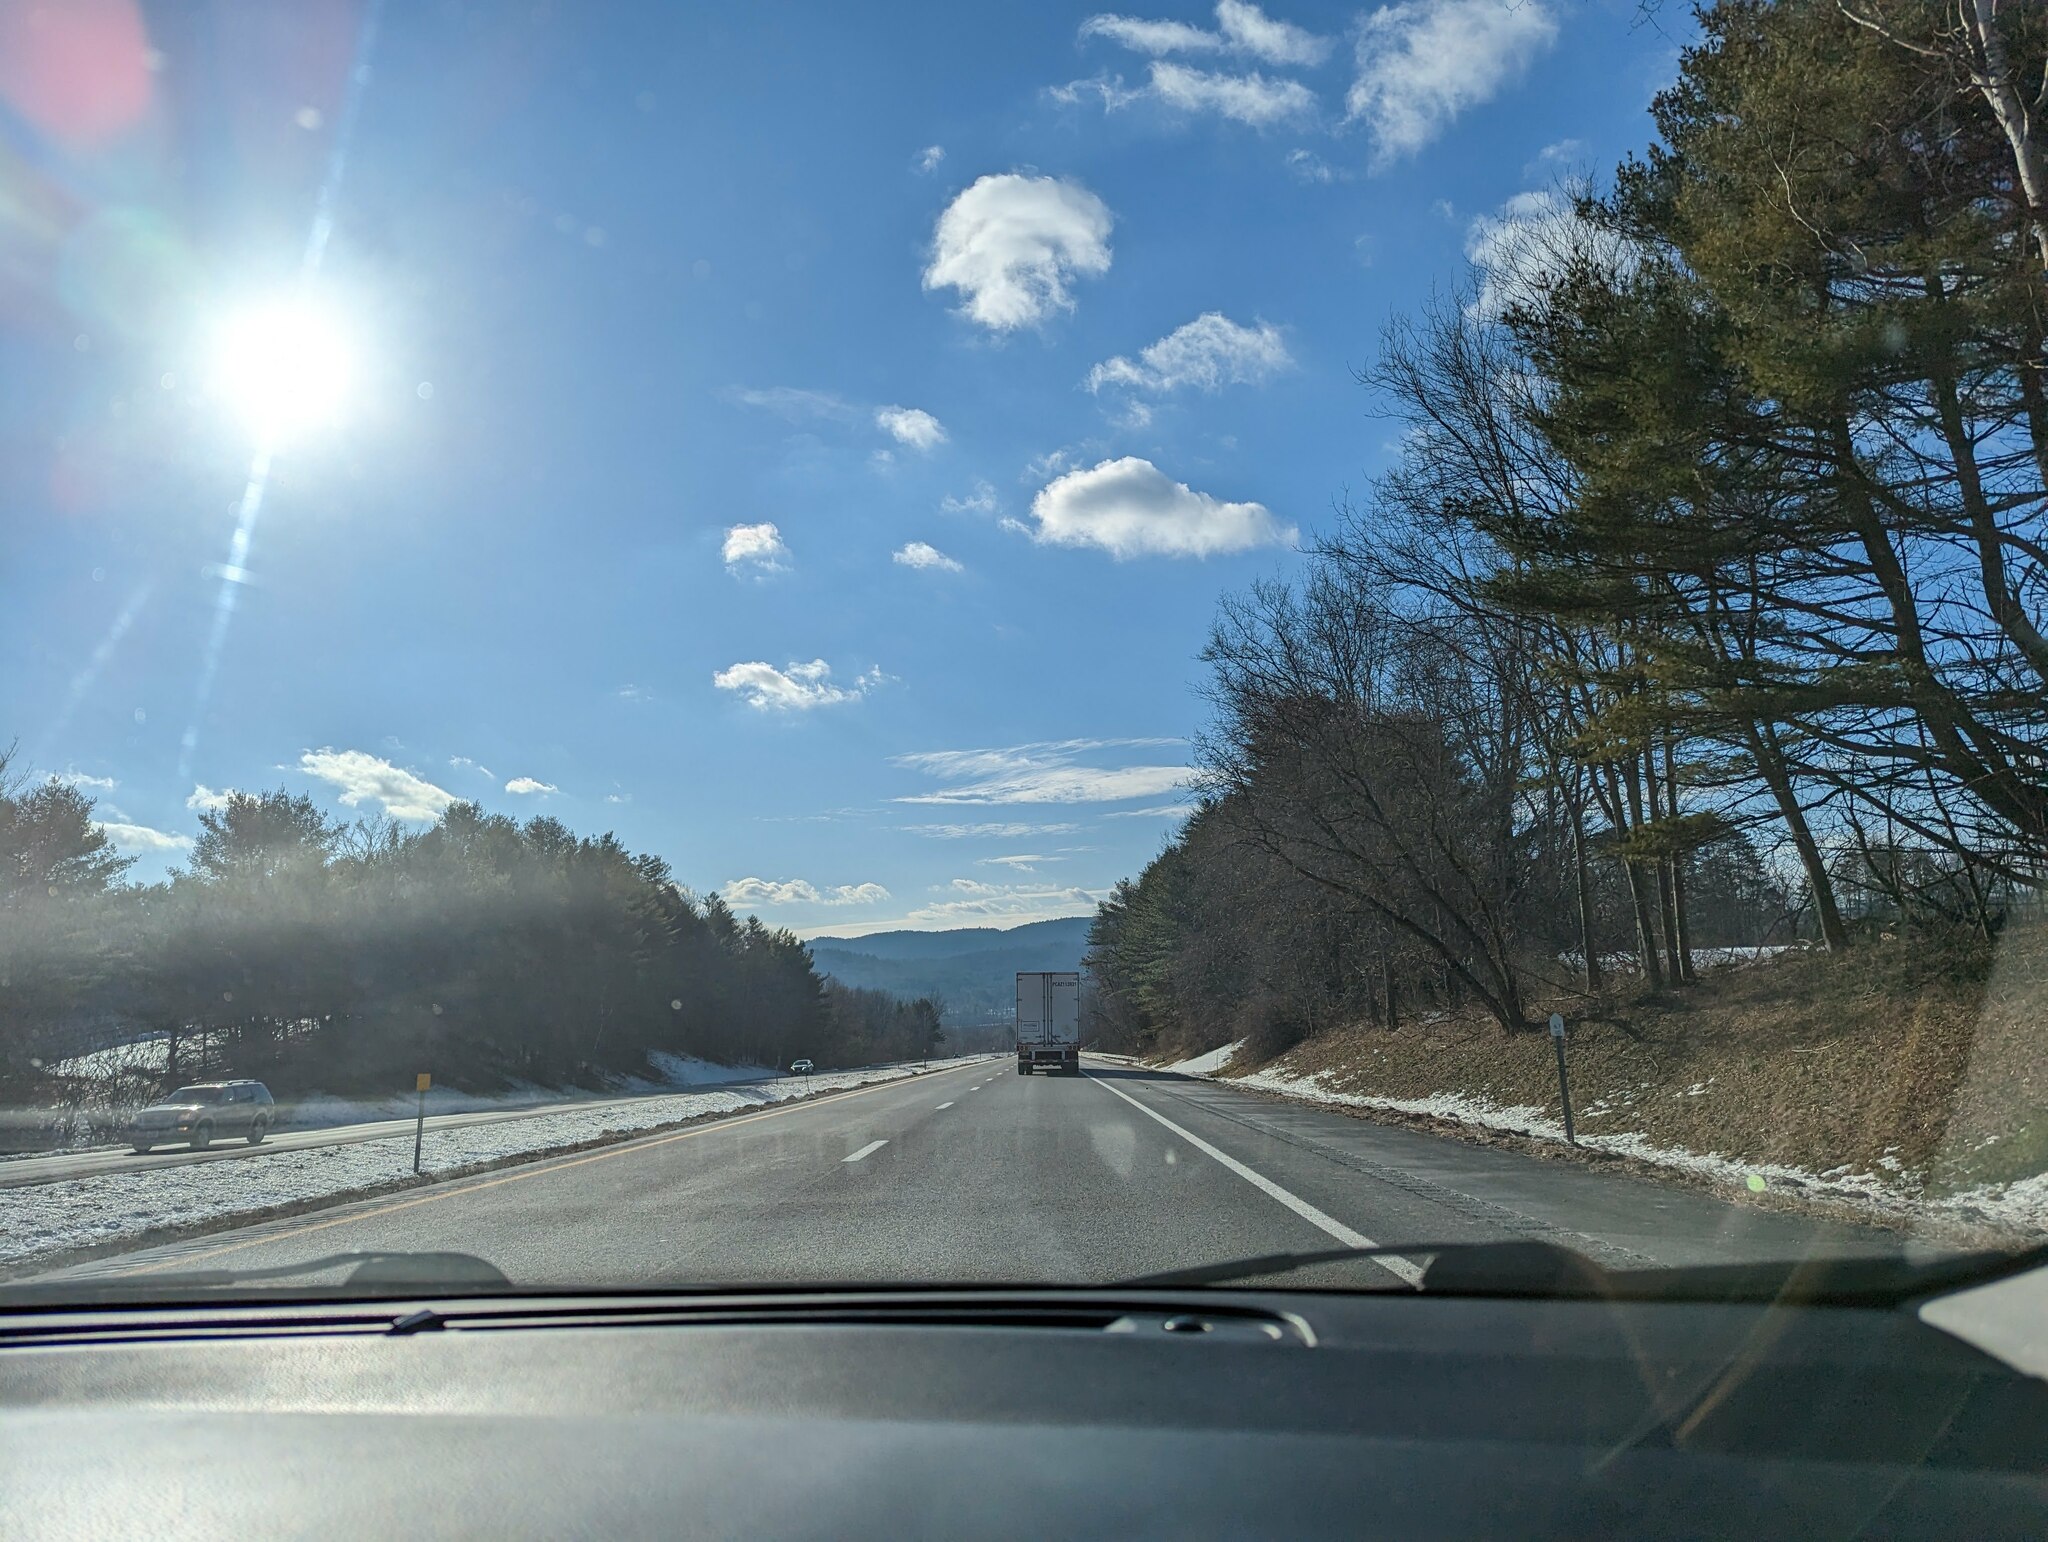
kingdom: Plantae
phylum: Tracheophyta
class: Pinopsida
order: Pinales
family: Pinaceae
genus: Pinus
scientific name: Pinus strobus
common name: Weymouth pine
